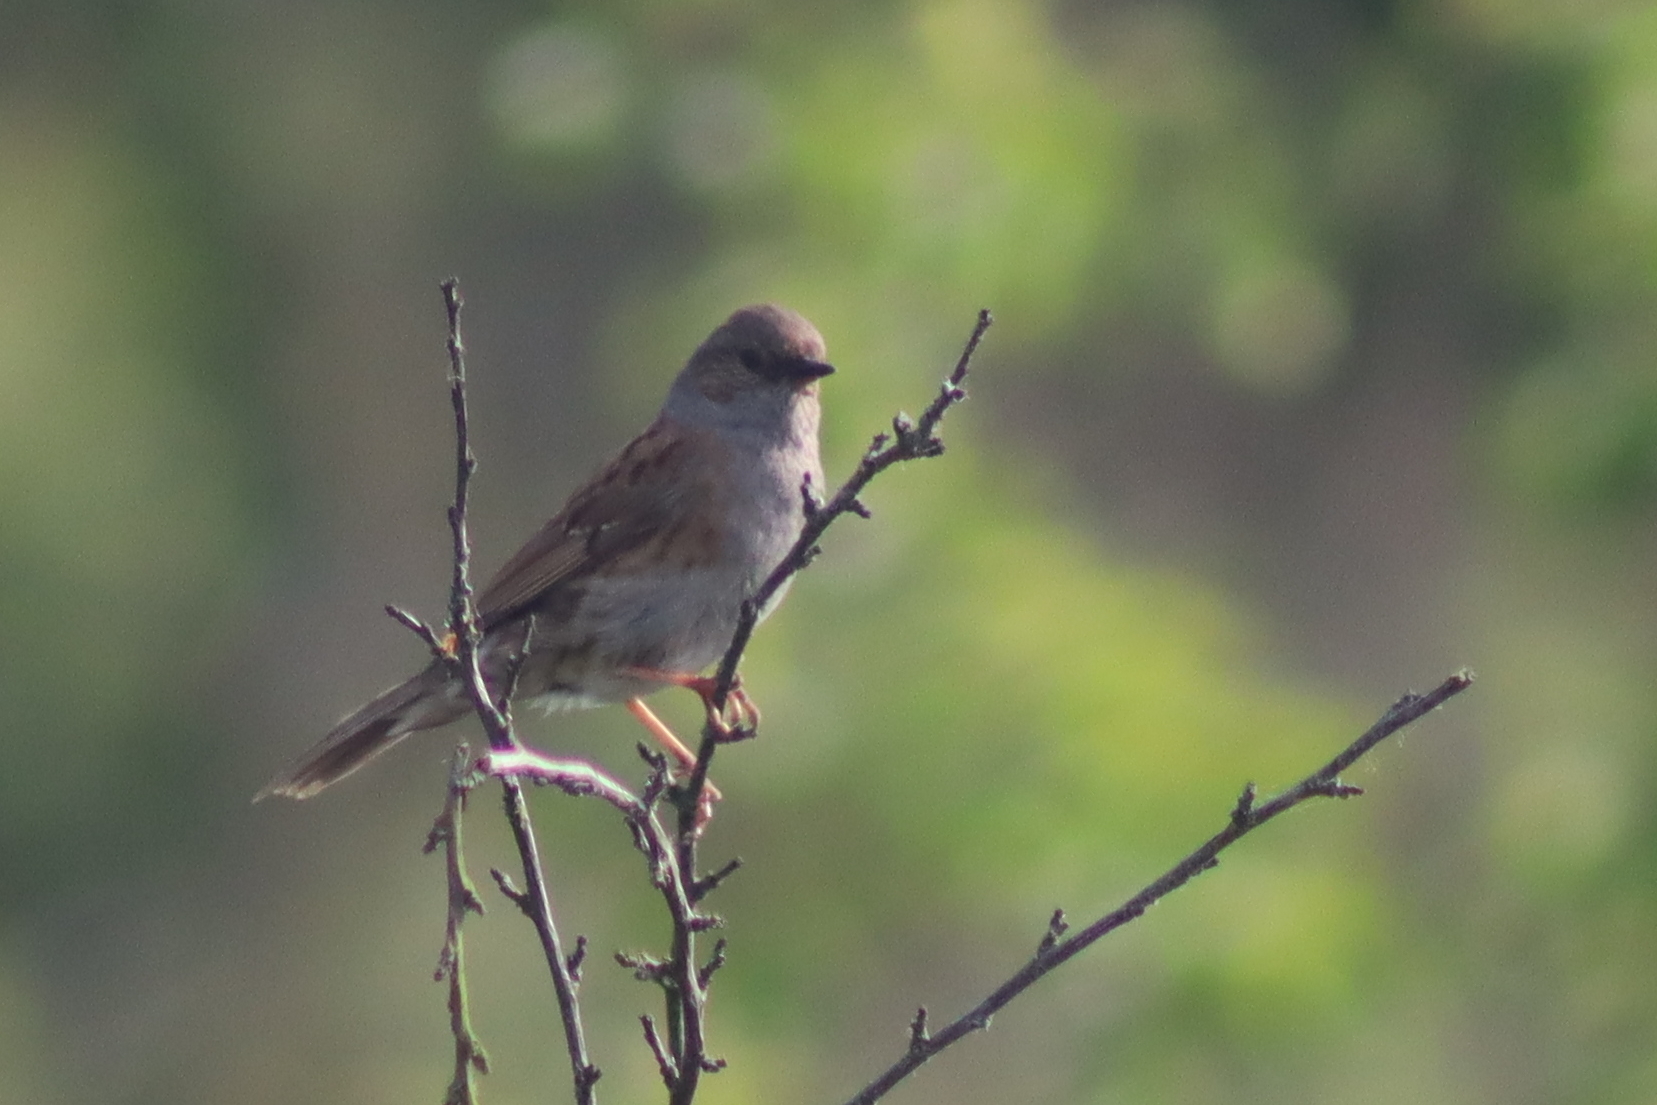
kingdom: Animalia
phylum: Chordata
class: Aves
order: Passeriformes
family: Prunellidae
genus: Prunella
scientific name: Prunella modularis
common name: Dunnock
